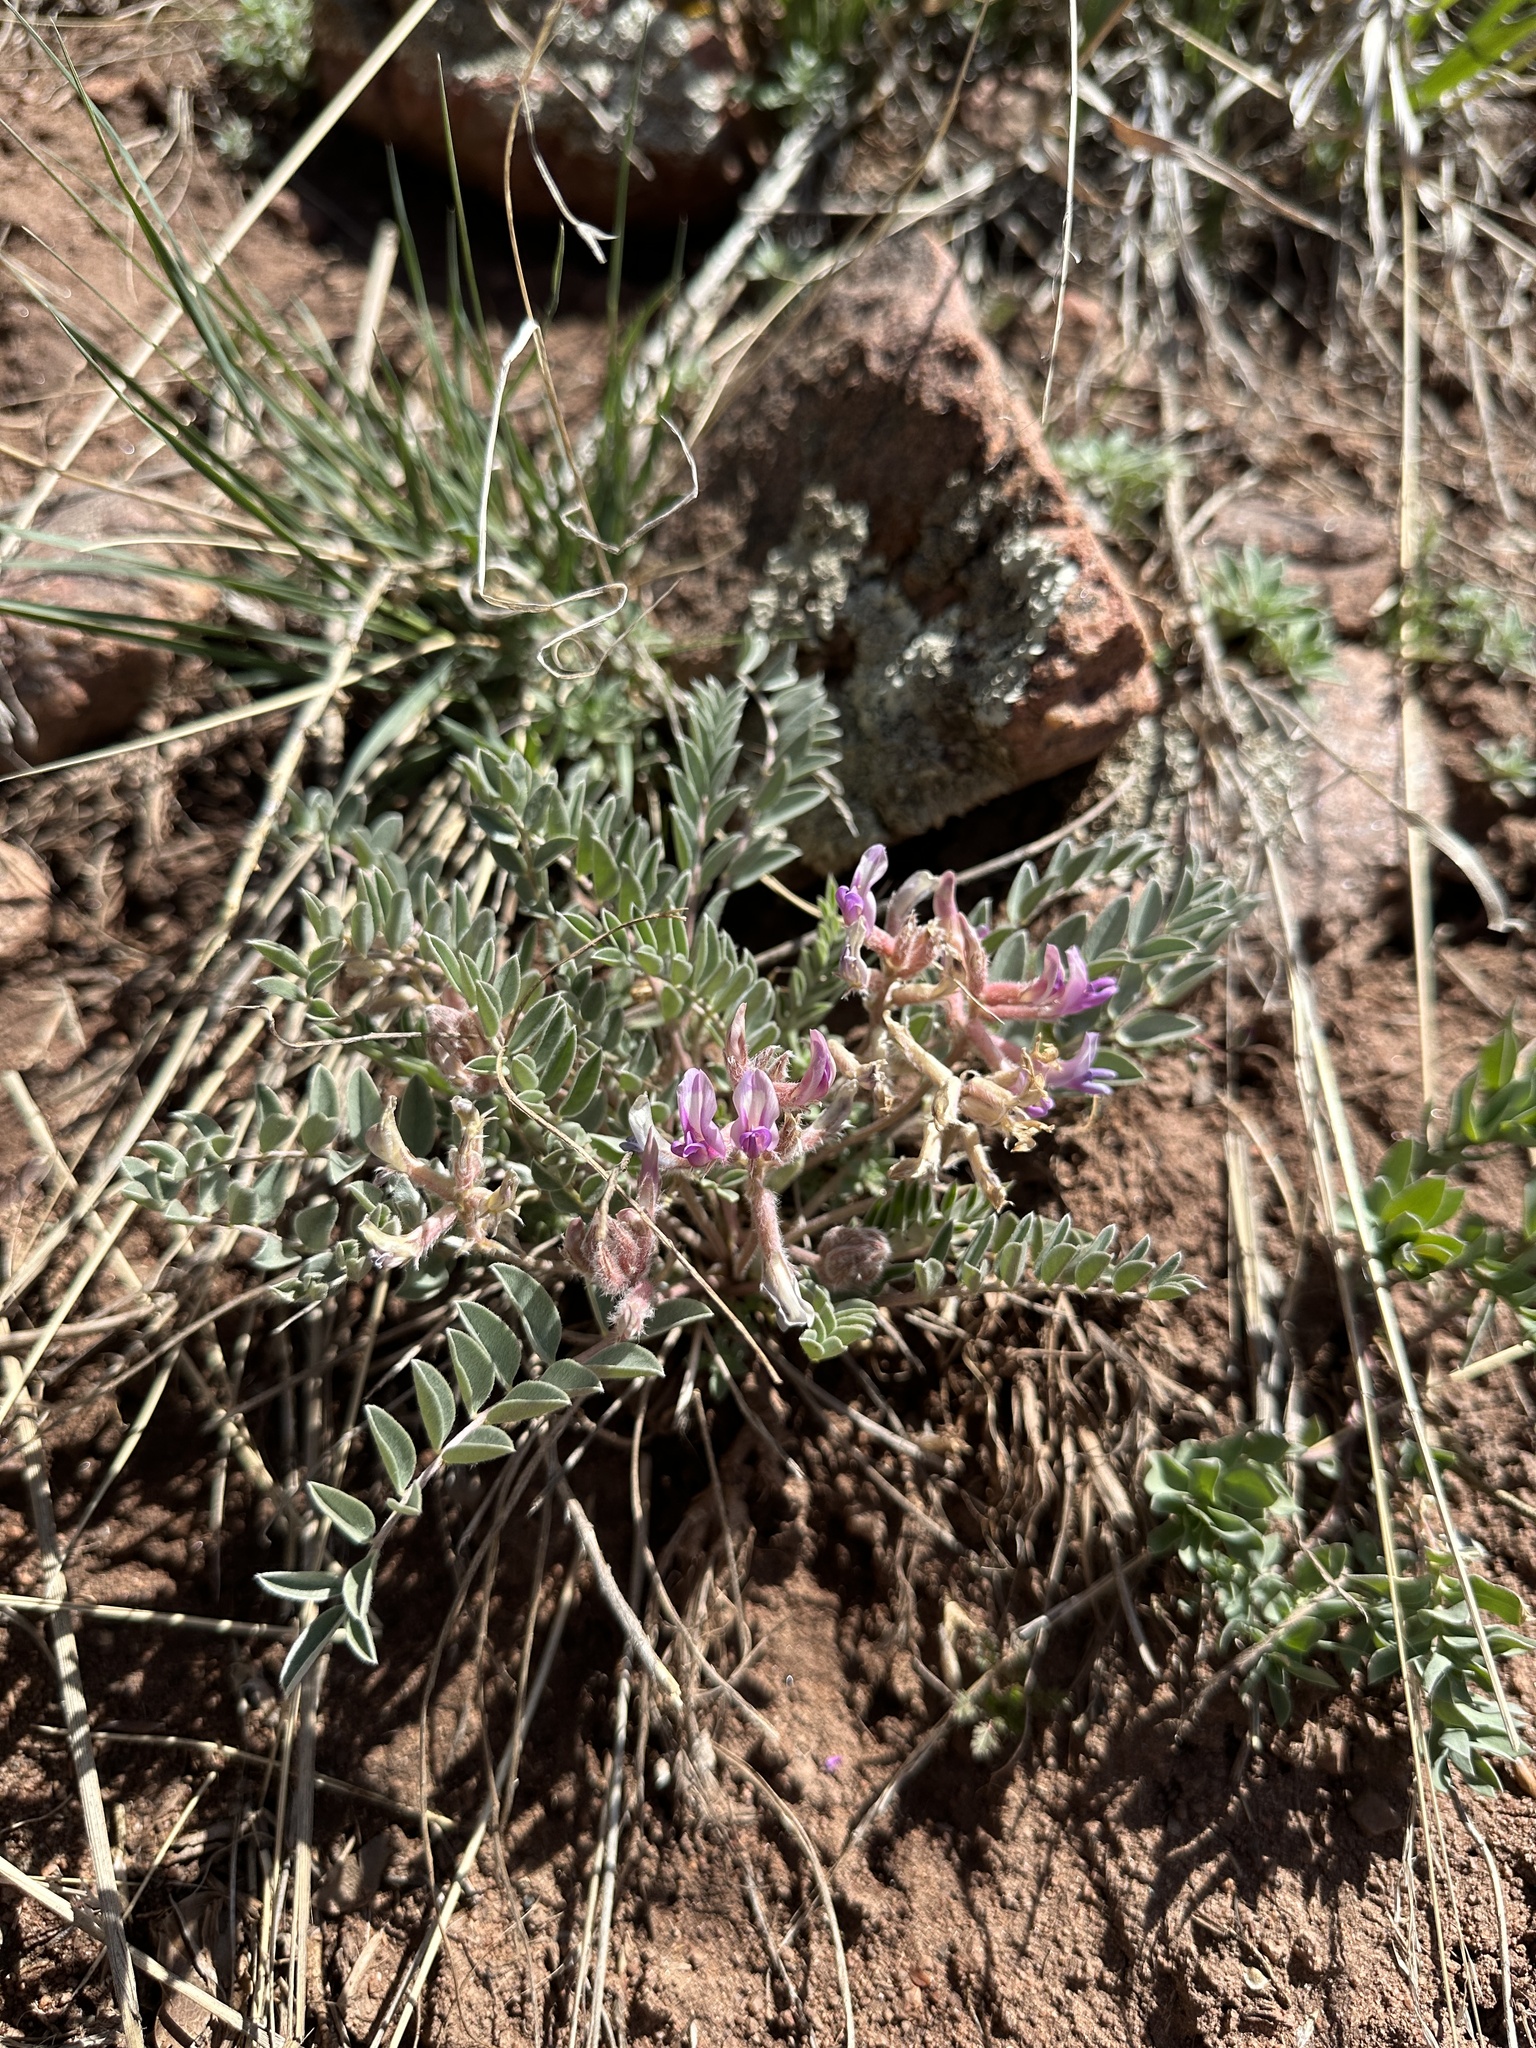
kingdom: Plantae
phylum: Tracheophyta
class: Magnoliopsida
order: Fabales
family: Fabaceae
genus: Astragalus
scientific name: Astragalus shortianus
